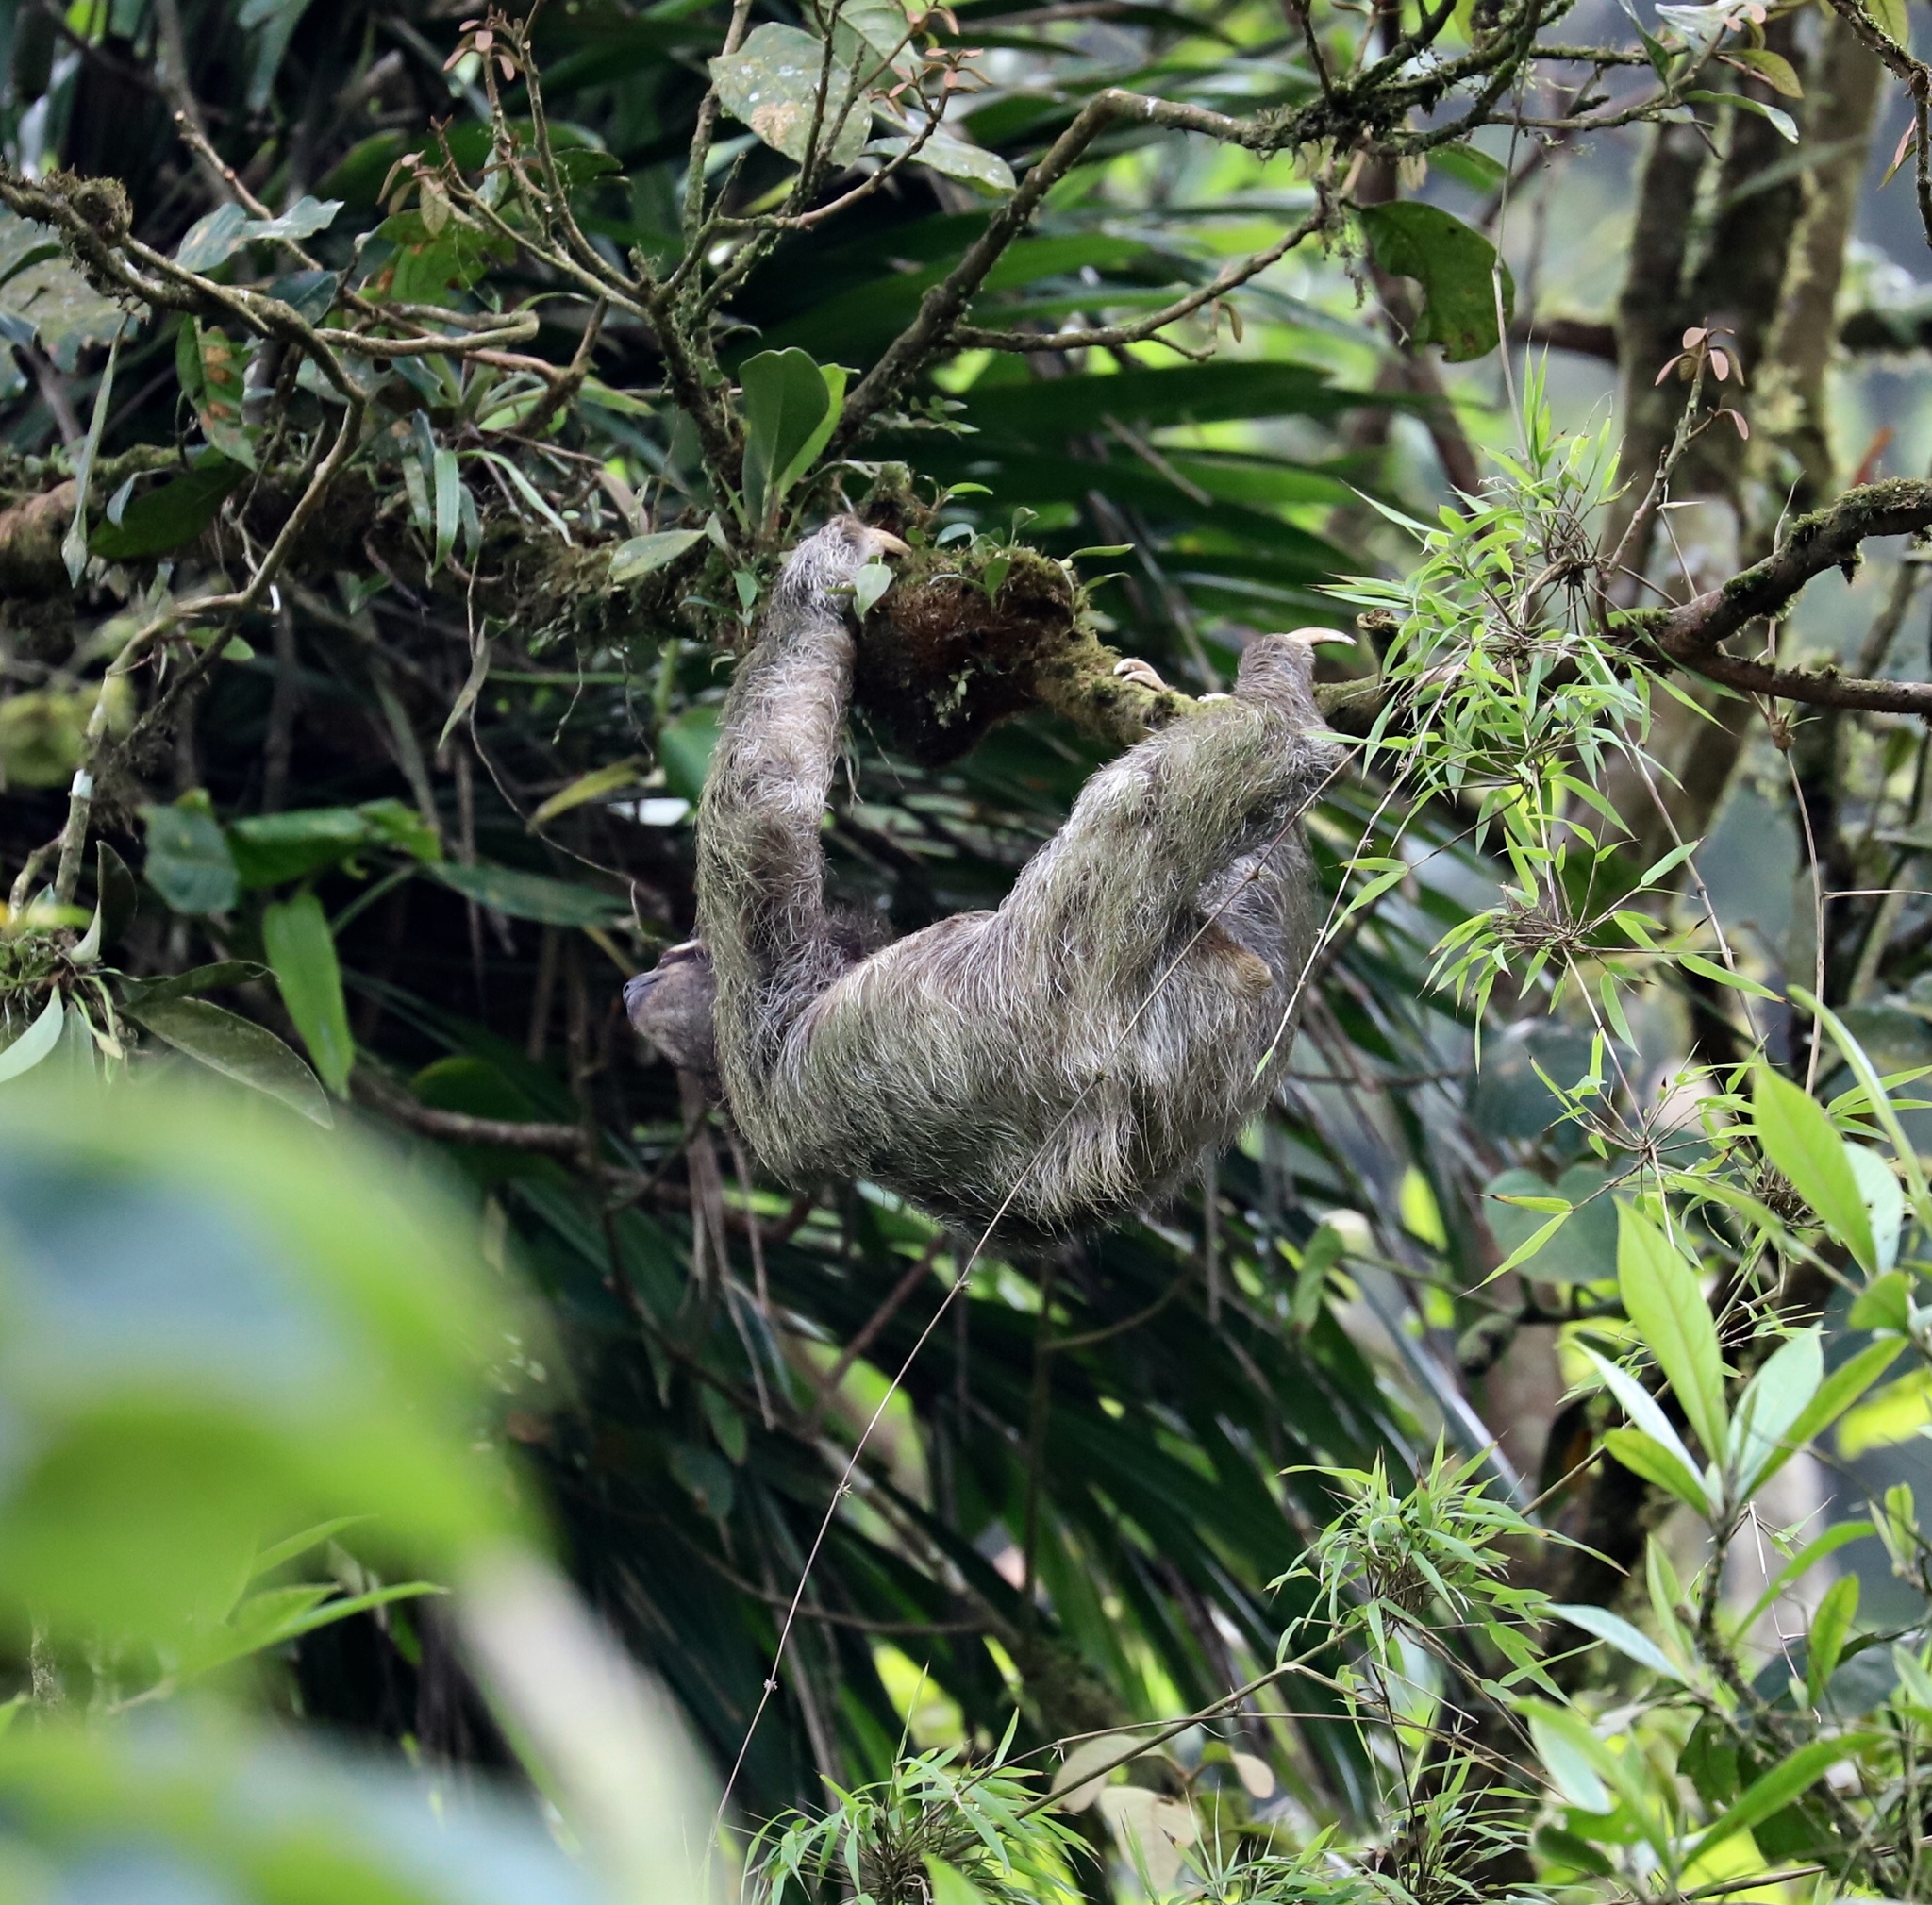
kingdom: Animalia
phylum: Chordata
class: Mammalia
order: Pilosa
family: Bradypodidae
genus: Bradypus
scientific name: Bradypus variegatus
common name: Brown-throated three-toed sloth
